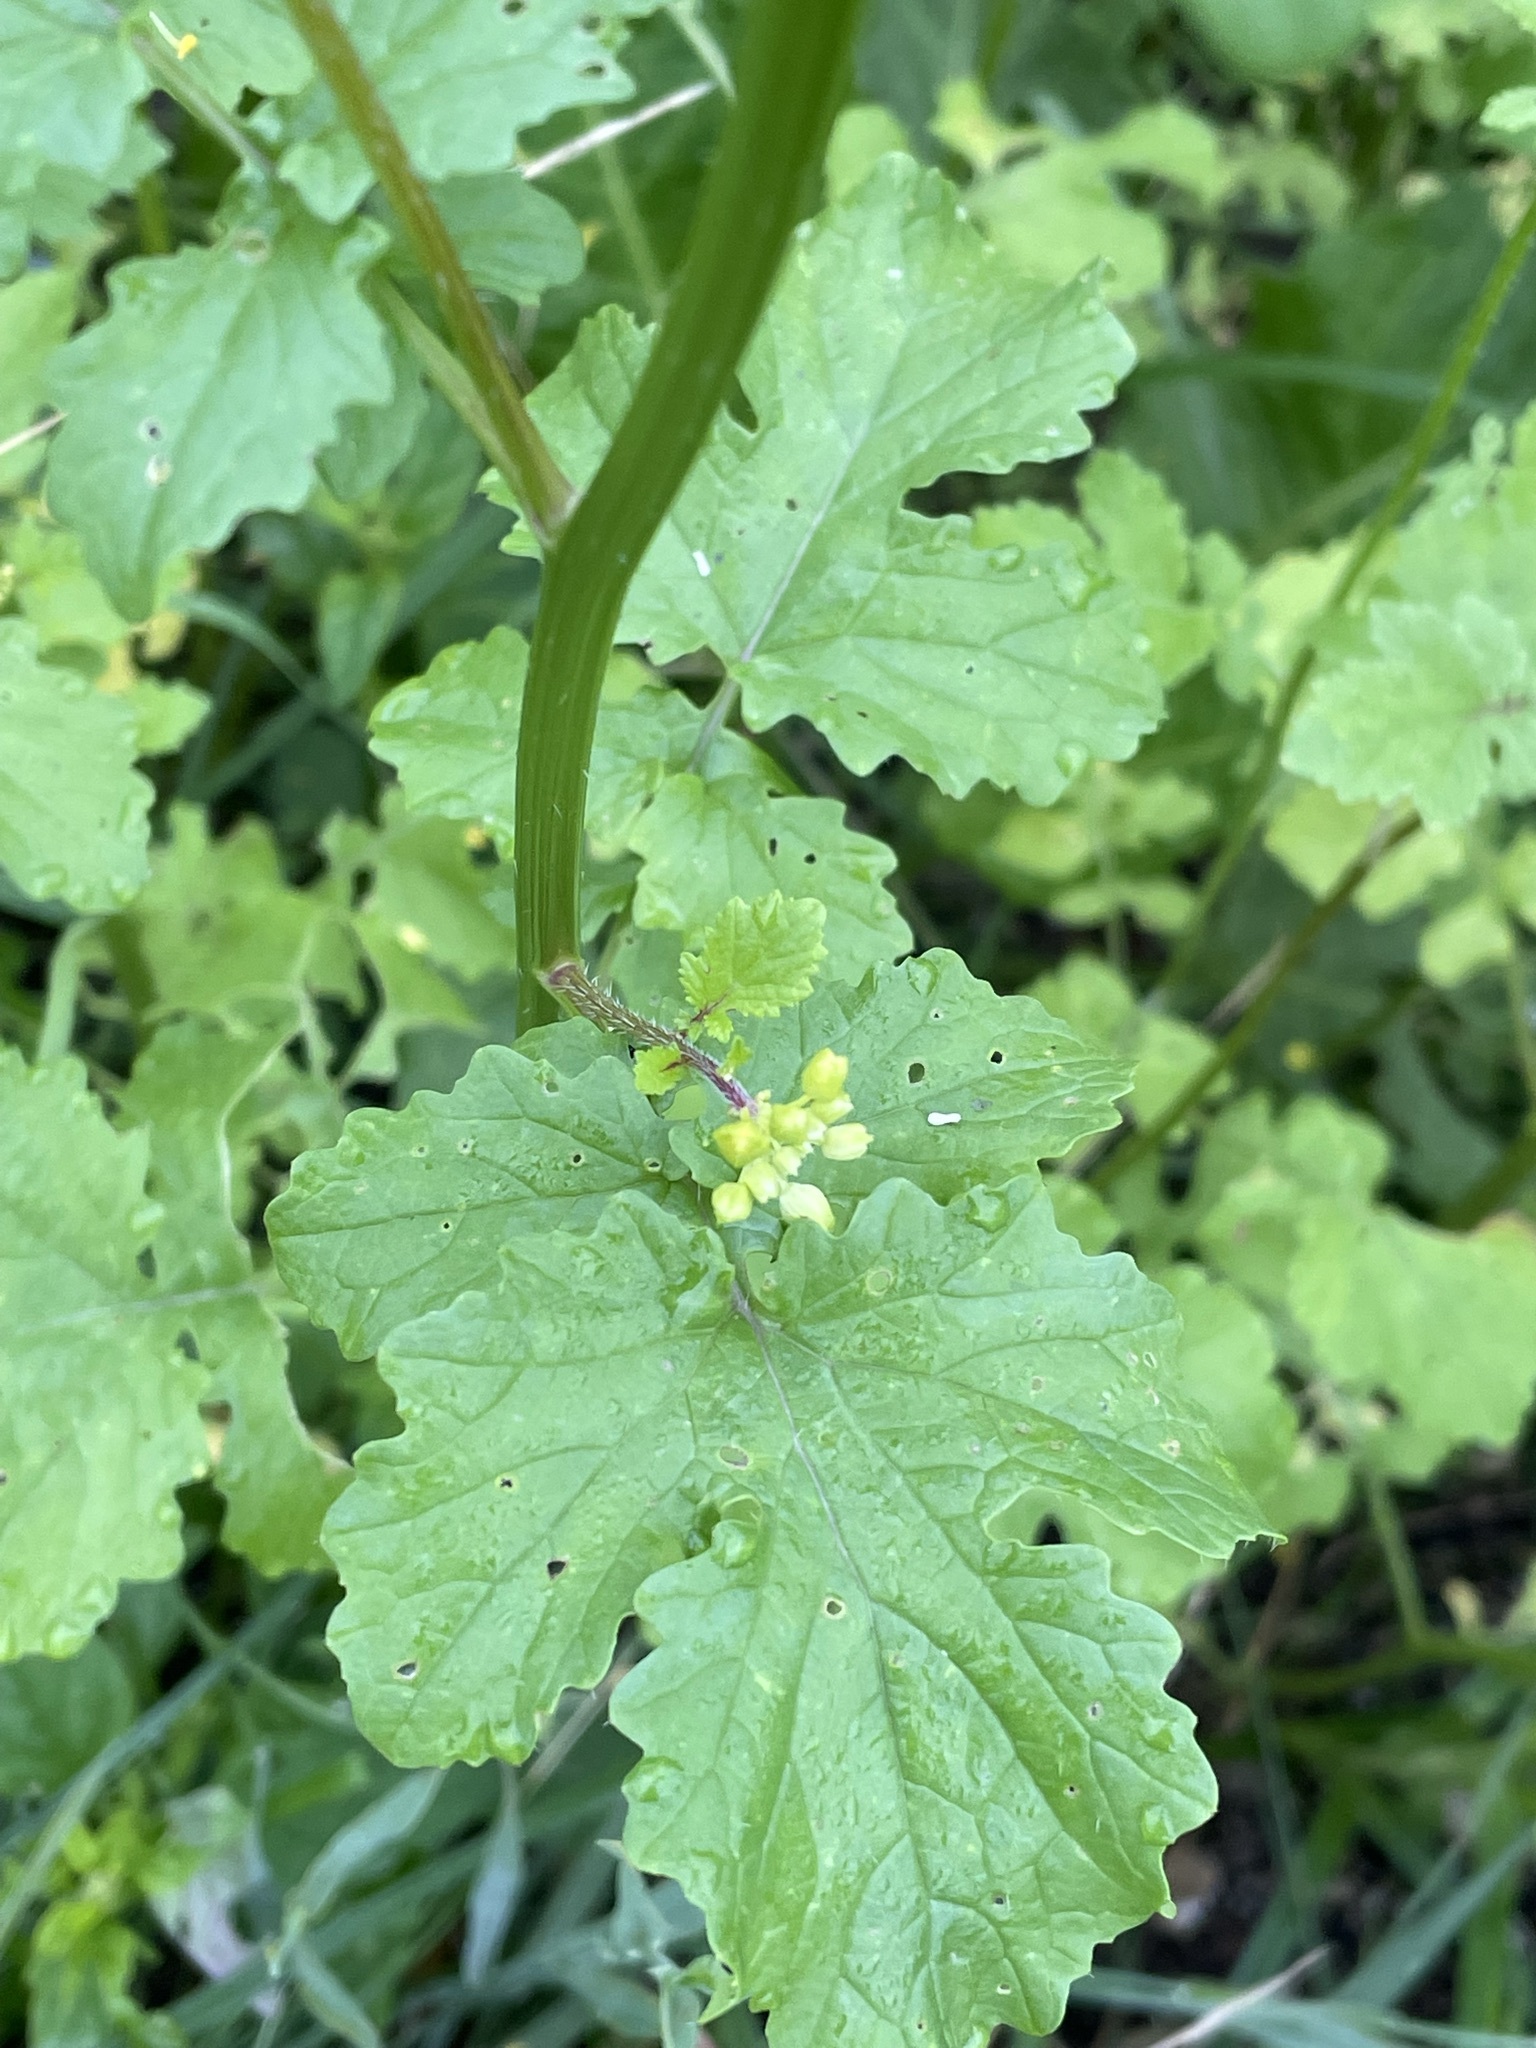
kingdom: Plantae
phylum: Tracheophyta
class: Magnoliopsida
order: Brassicales
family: Brassicaceae
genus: Sinapis
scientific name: Sinapis alba
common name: White mustard
